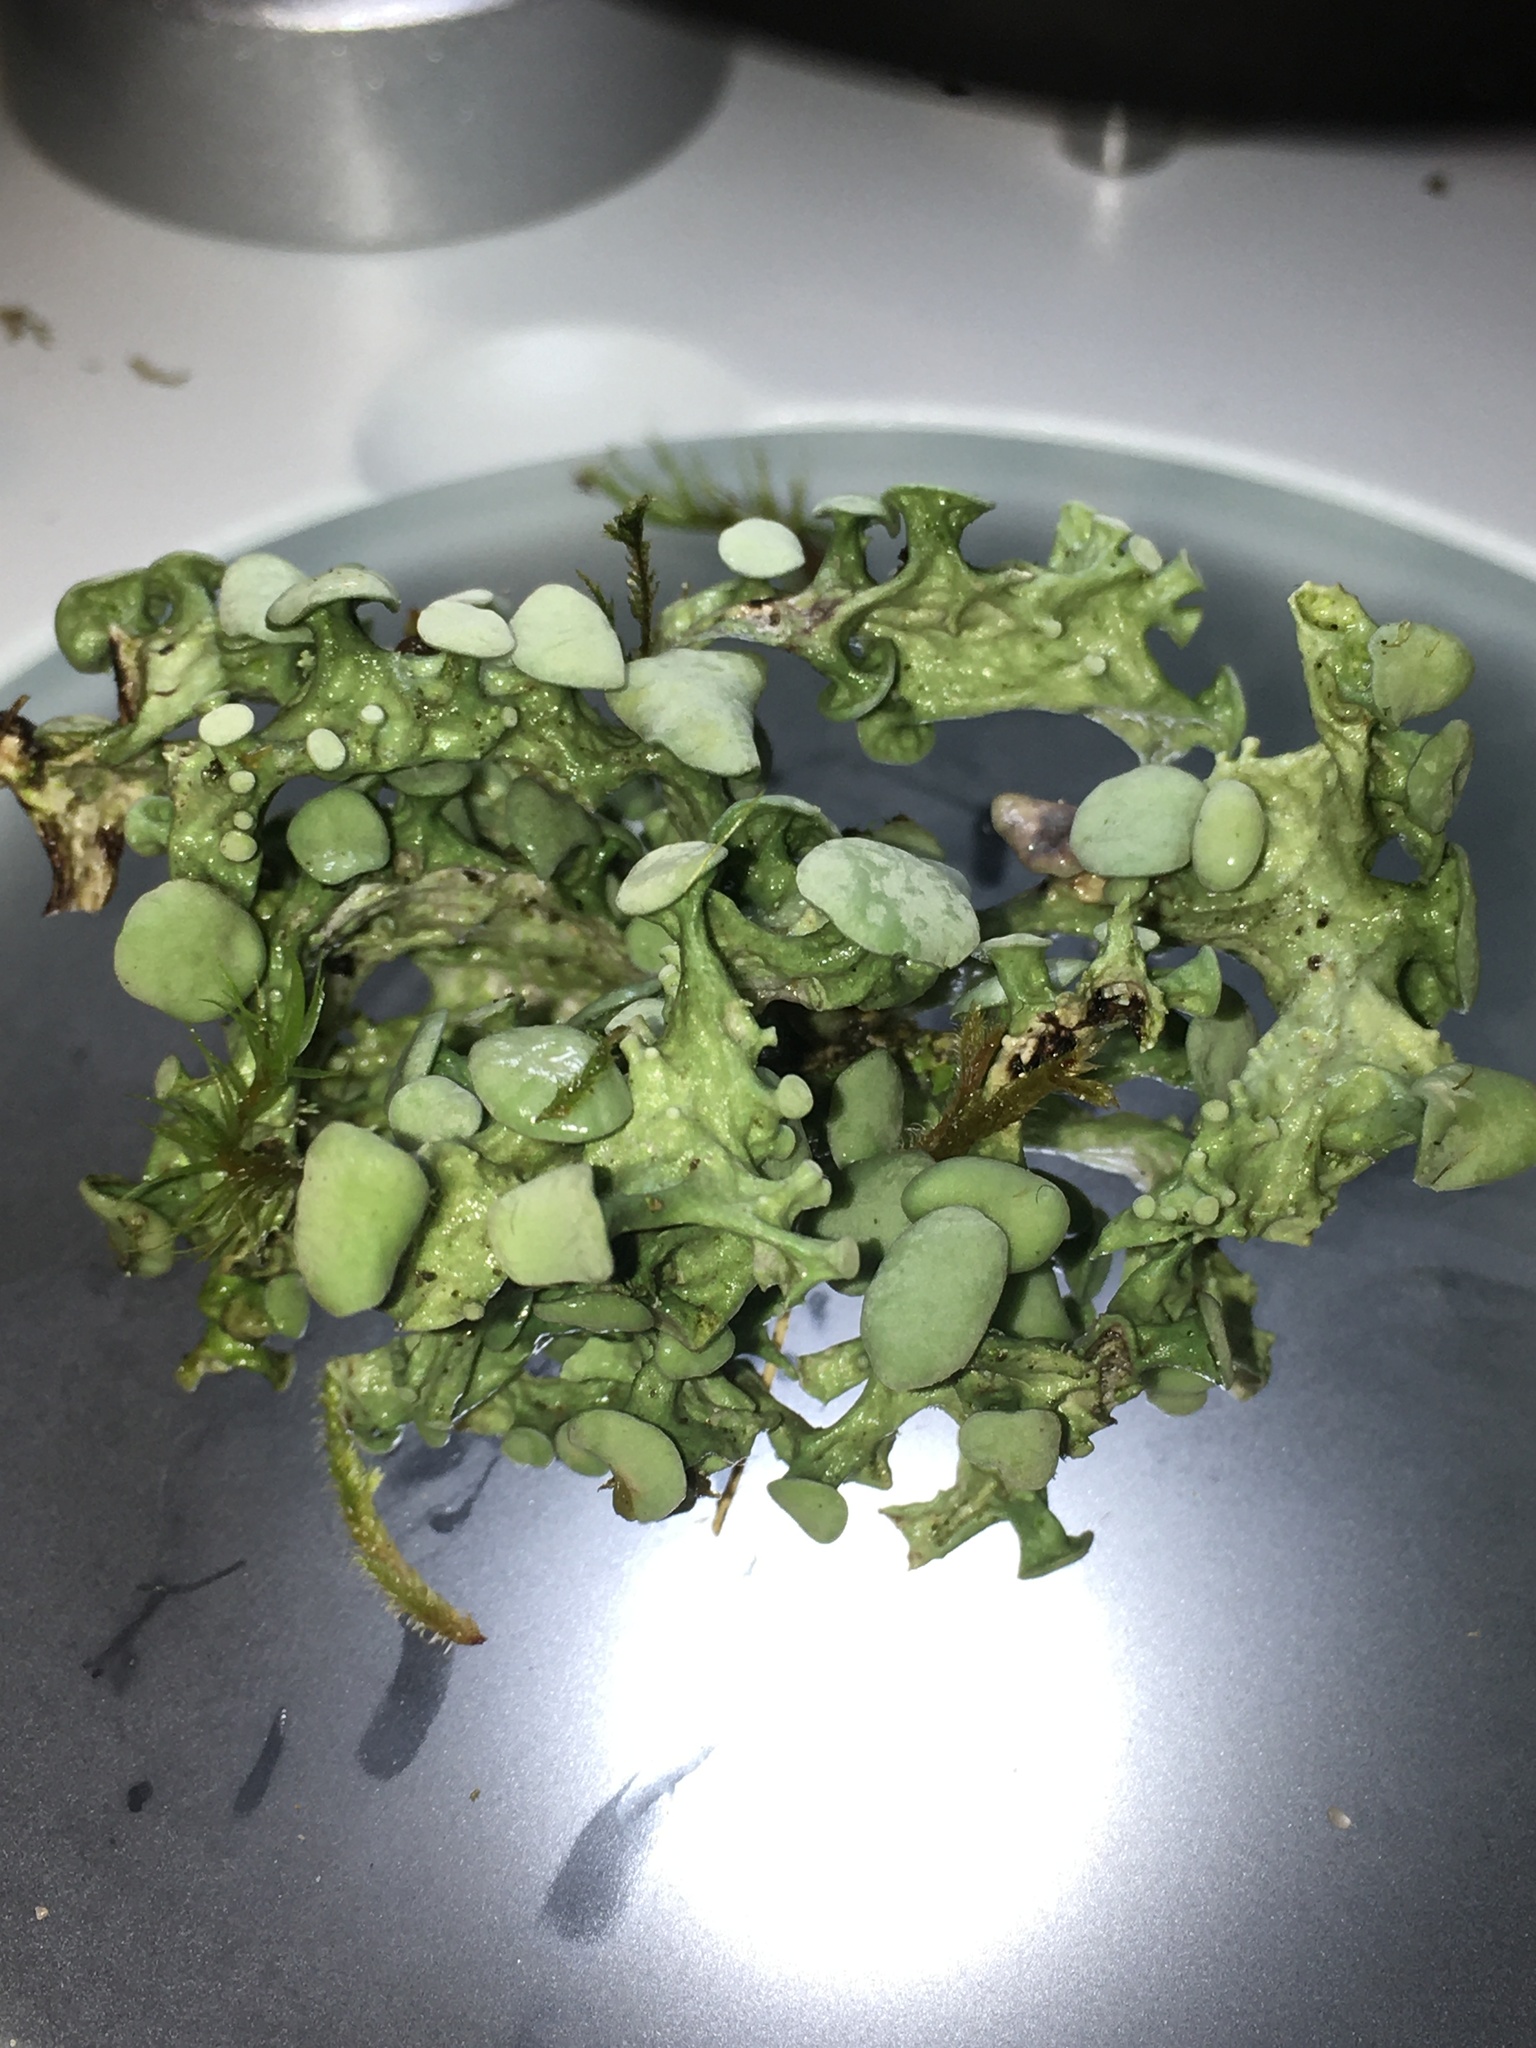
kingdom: Fungi
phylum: Ascomycota
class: Lecanoromycetes
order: Lecanorales
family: Ramalinaceae
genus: Ramalina
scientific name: Ramalina fastigiata
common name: Dotted ribbon lichen
